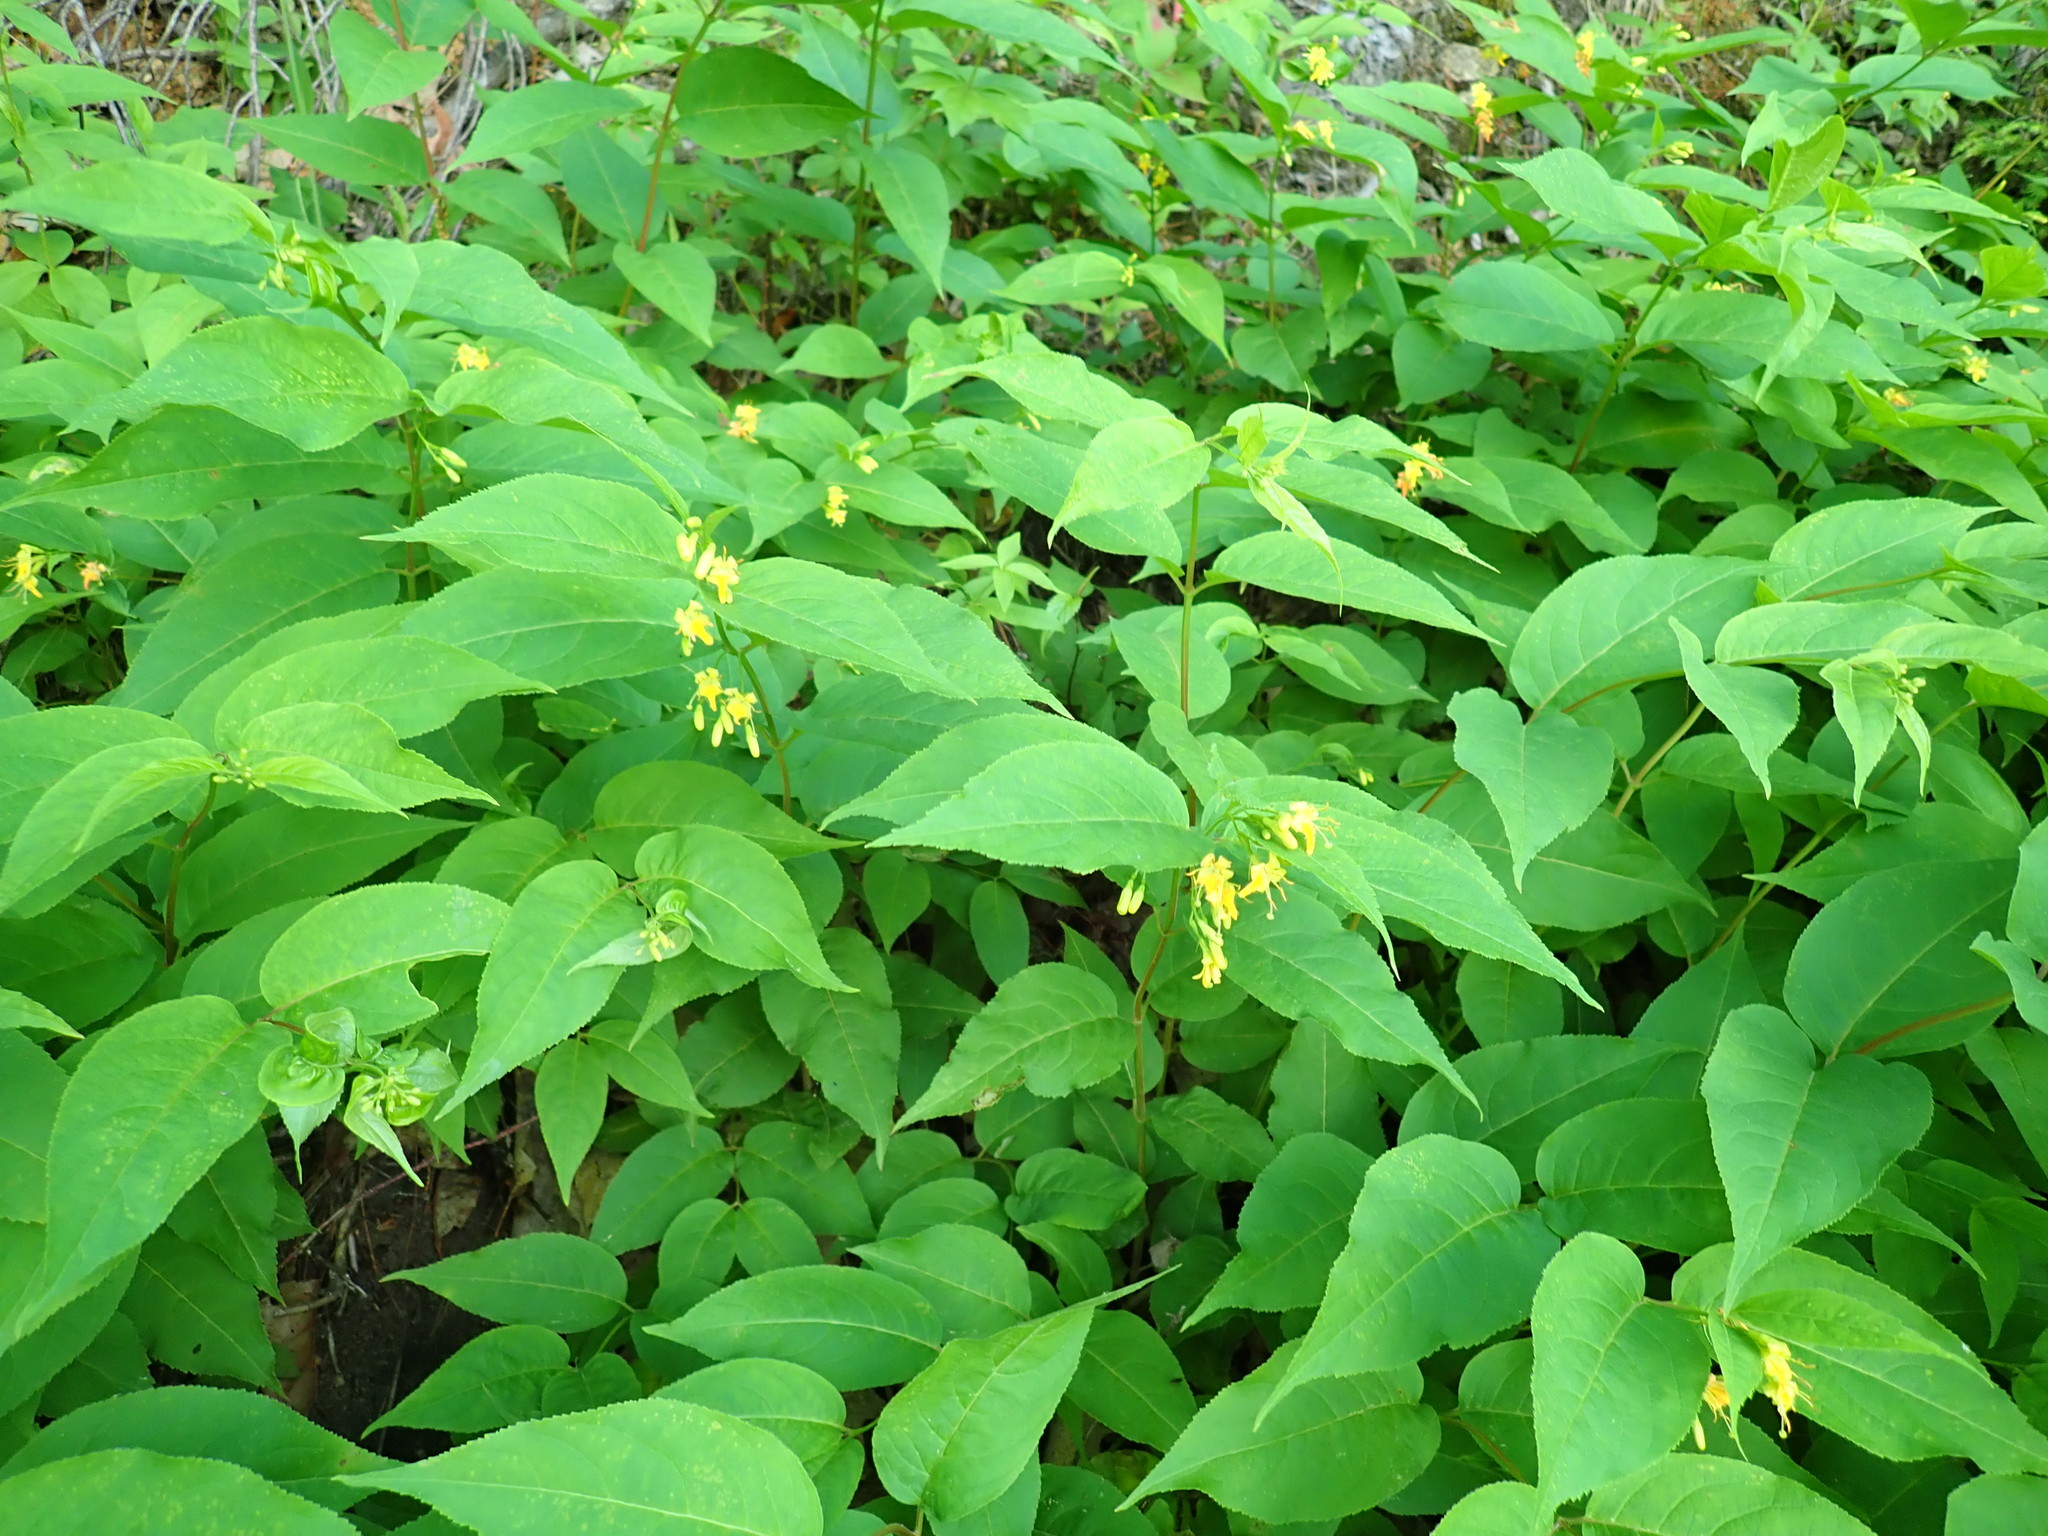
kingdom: Plantae
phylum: Tracheophyta
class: Magnoliopsida
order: Dipsacales
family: Caprifoliaceae
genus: Diervilla
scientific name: Diervilla lonicera
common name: Bush-honeysuckle
